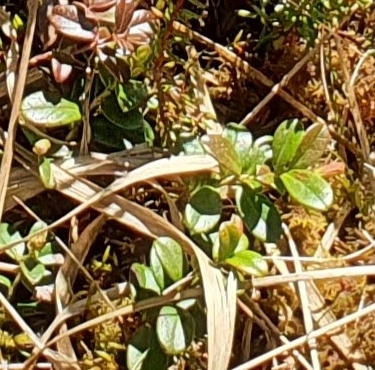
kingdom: Plantae
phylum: Tracheophyta
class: Magnoliopsida
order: Ericales
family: Ericaceae
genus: Vaccinium
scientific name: Vaccinium vitis-idaea
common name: Cowberry
